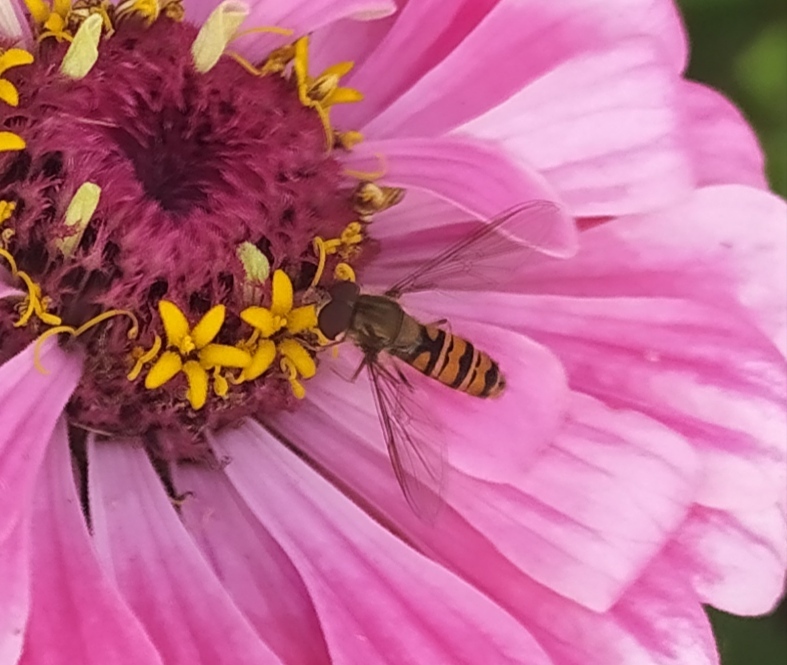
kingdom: Animalia
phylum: Arthropoda
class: Insecta
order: Diptera
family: Syrphidae
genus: Episyrphus
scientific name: Episyrphus balteatus
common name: Marmalade hoverfly
